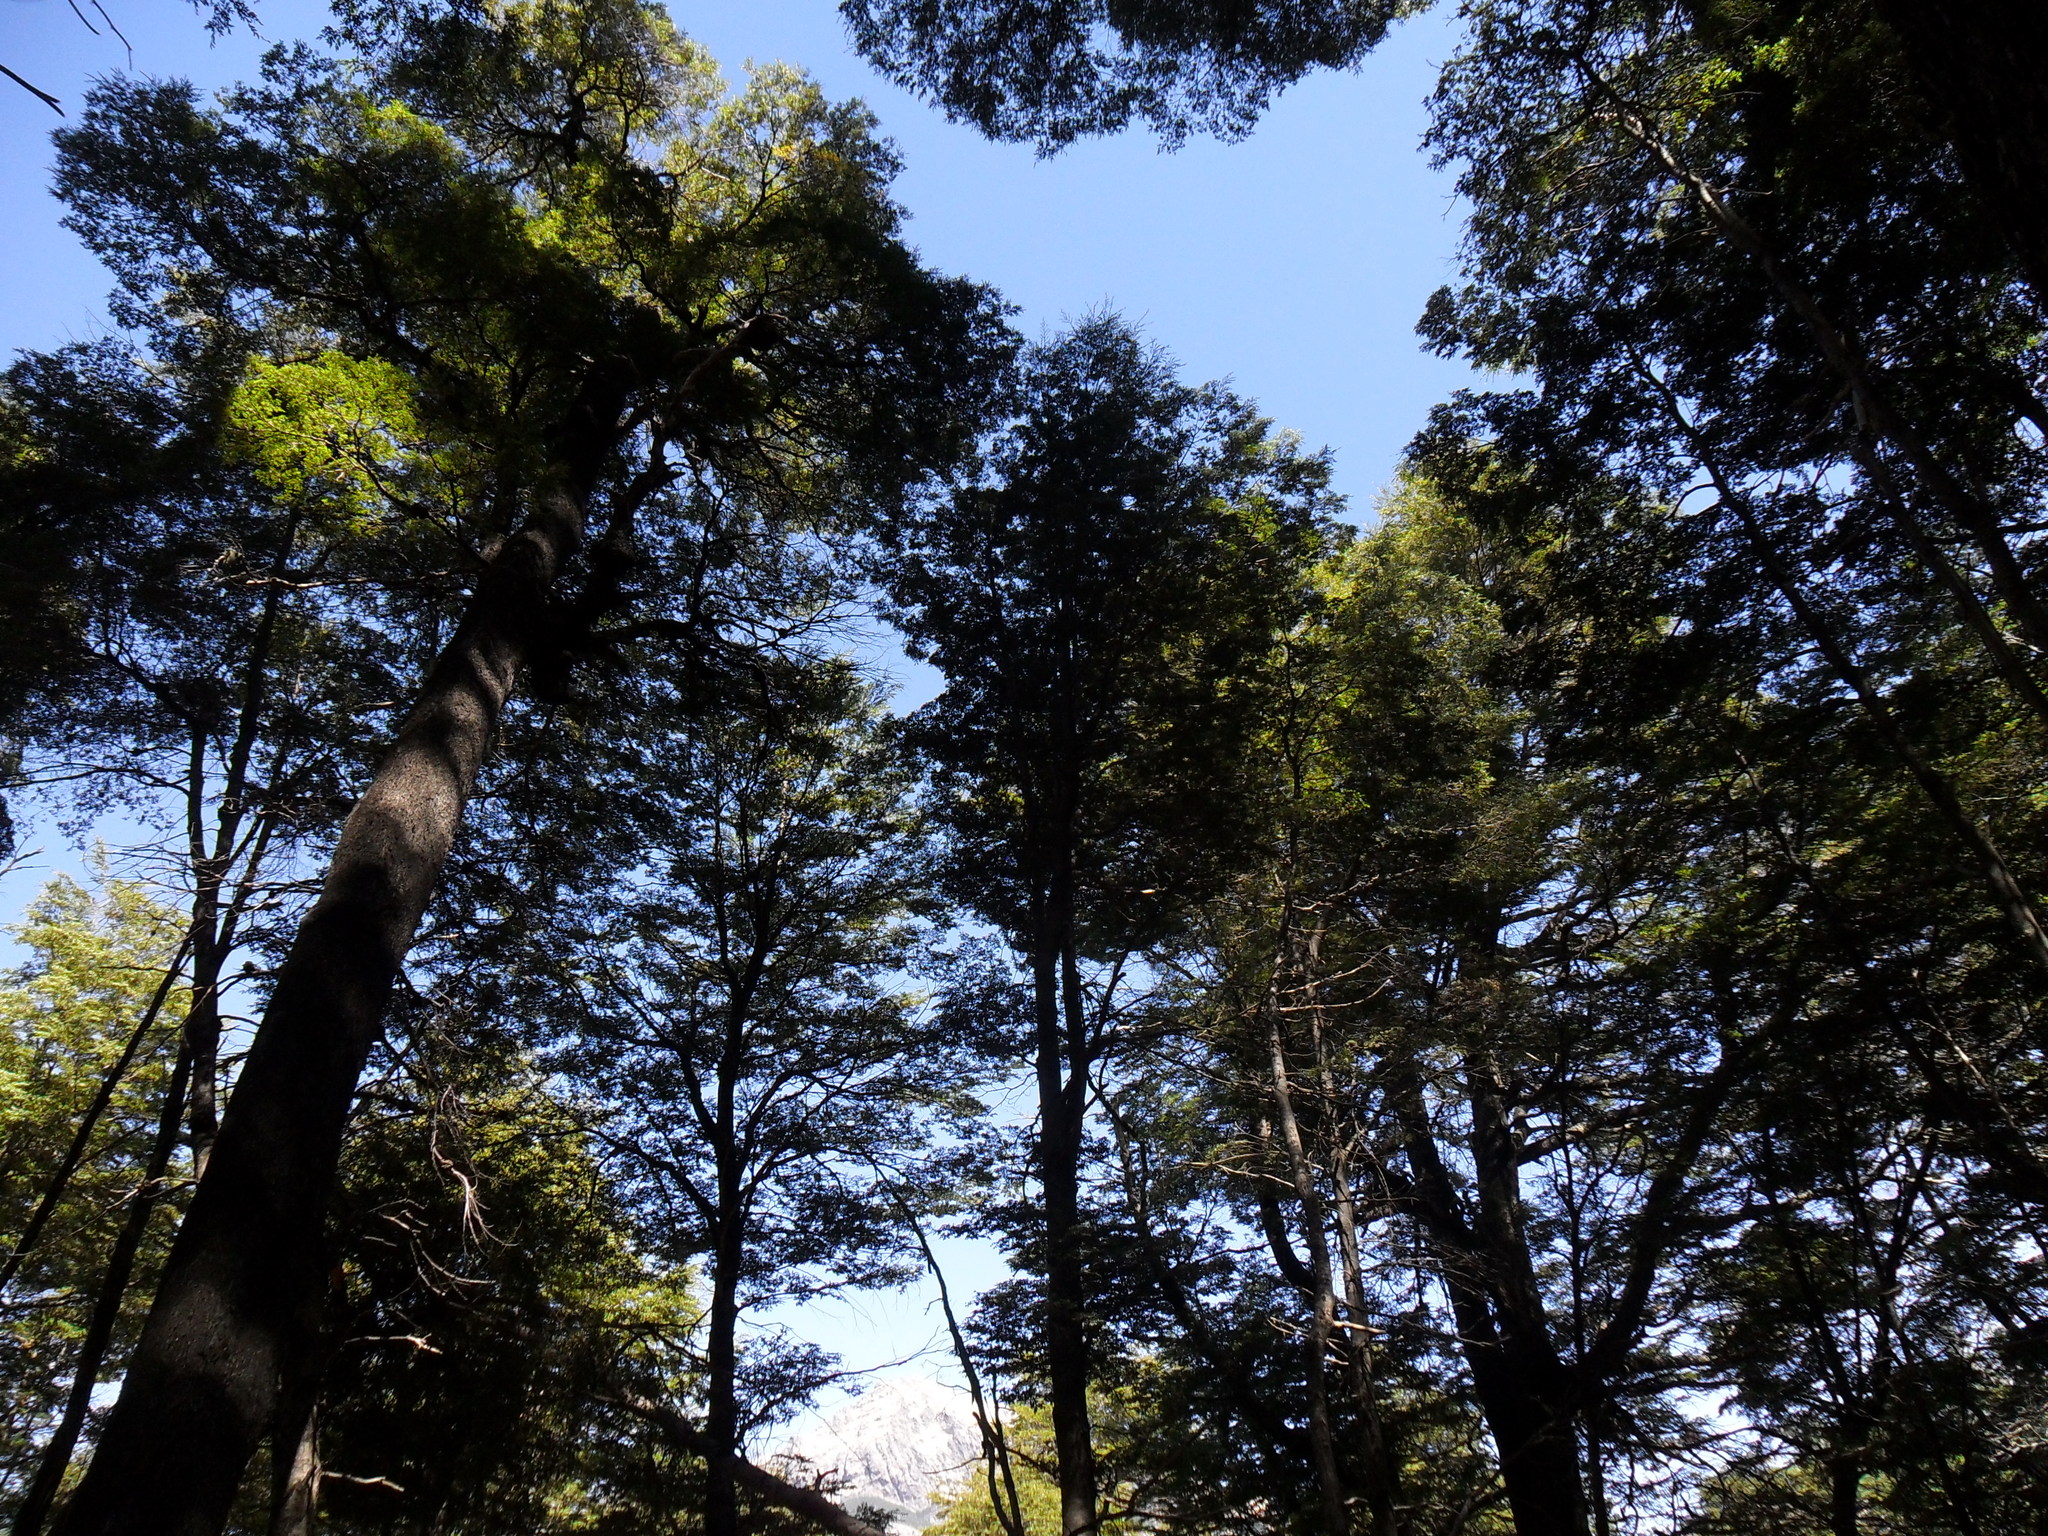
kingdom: Plantae
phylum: Tracheophyta
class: Magnoliopsida
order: Fagales
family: Nothofagaceae
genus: Nothofagus
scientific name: Nothofagus dombeyi
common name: Coigue
